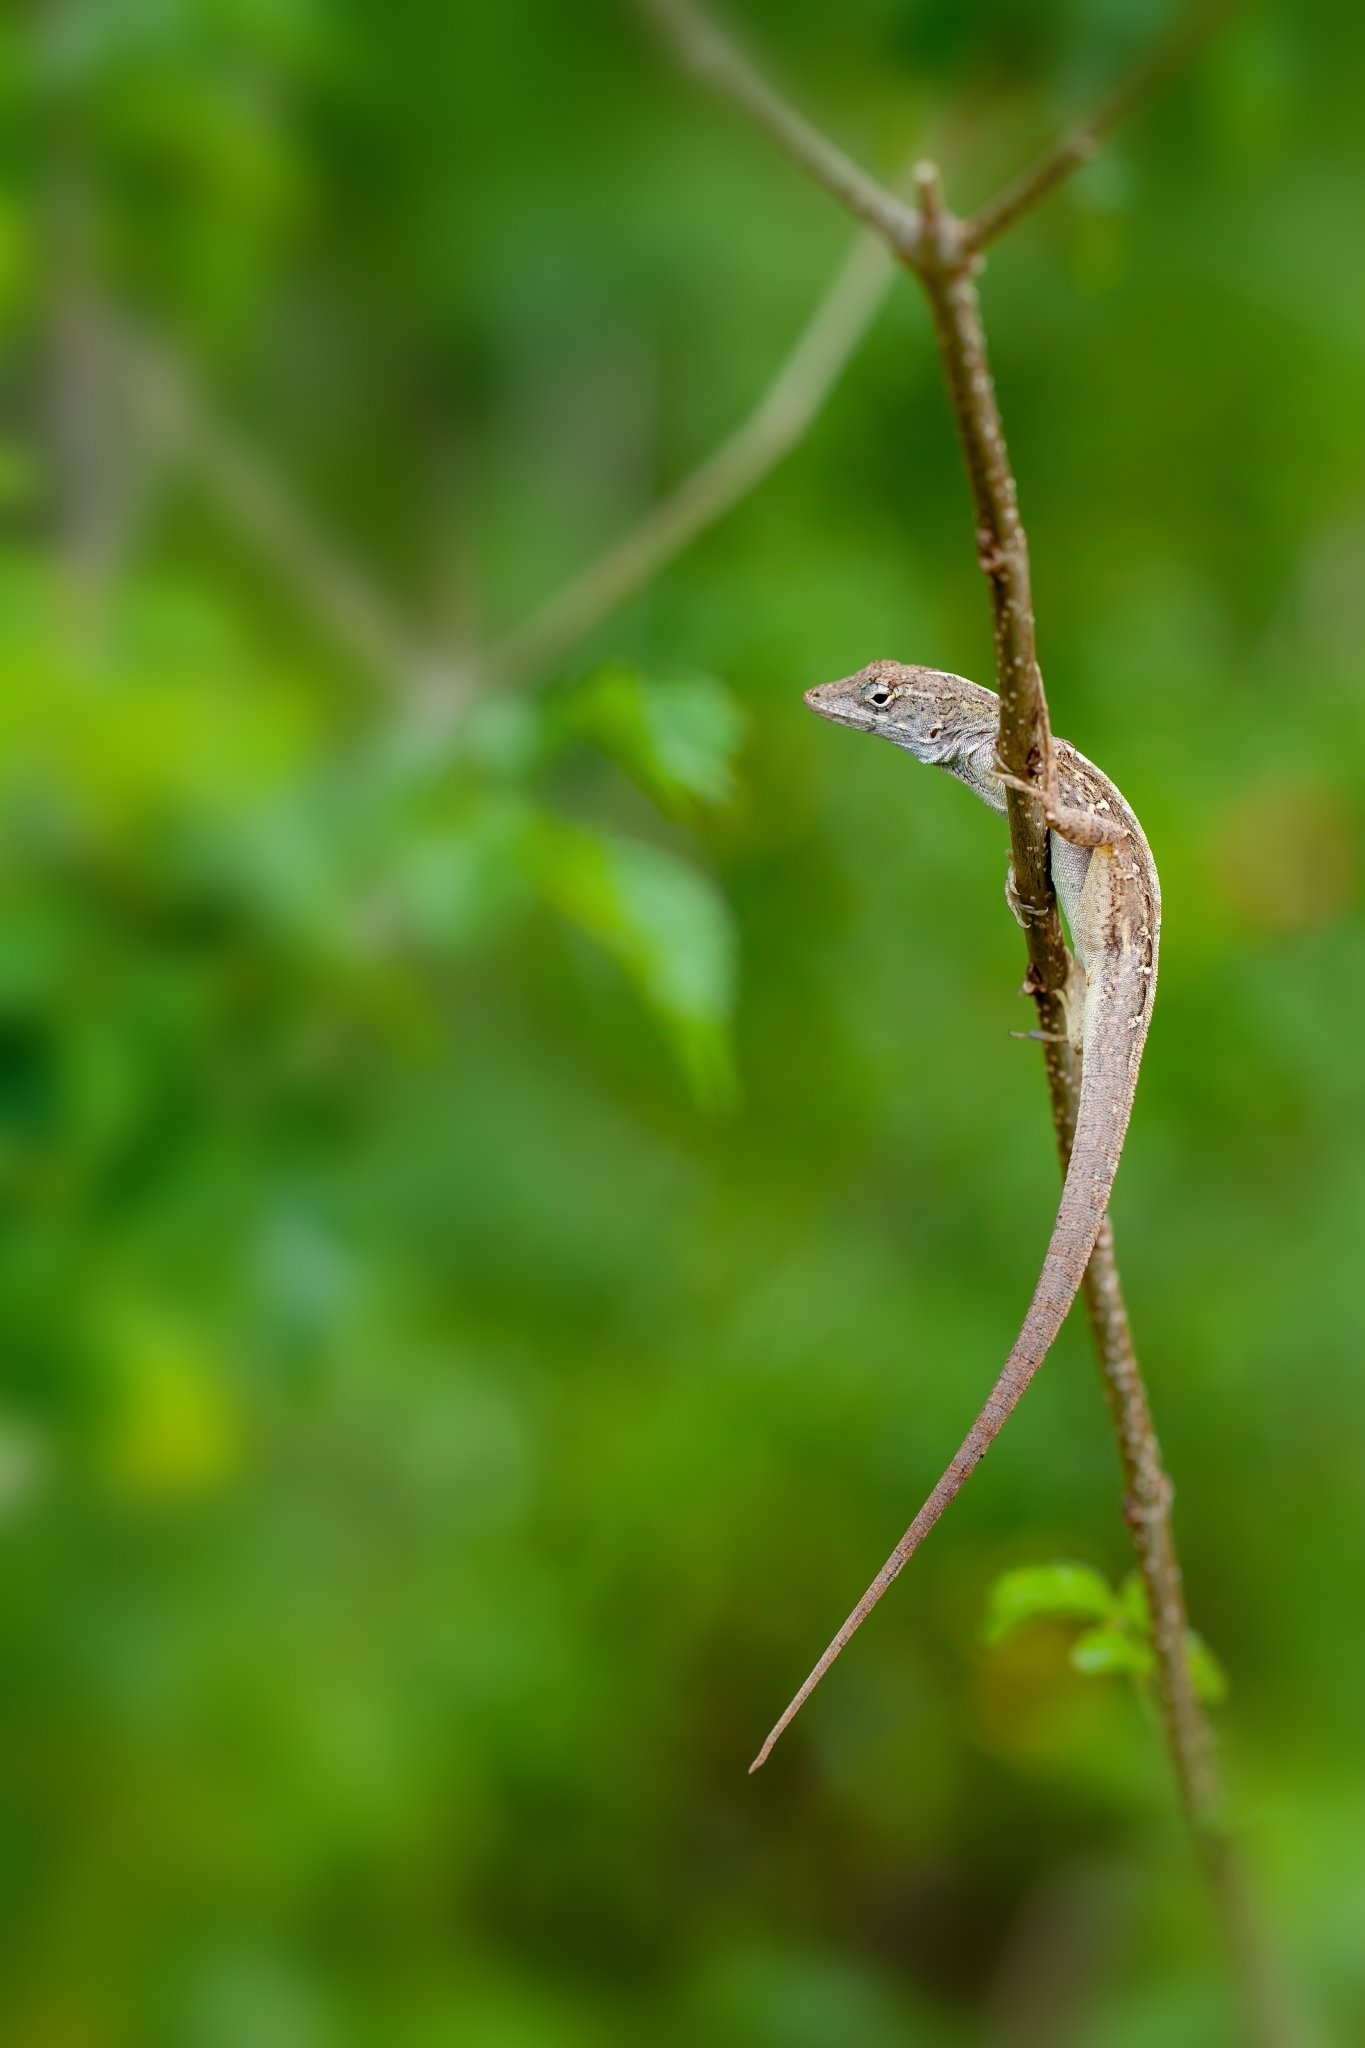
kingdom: Animalia
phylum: Chordata
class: Squamata
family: Dactyloidae
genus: Anolis
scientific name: Anolis sagrei
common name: Brown anole
